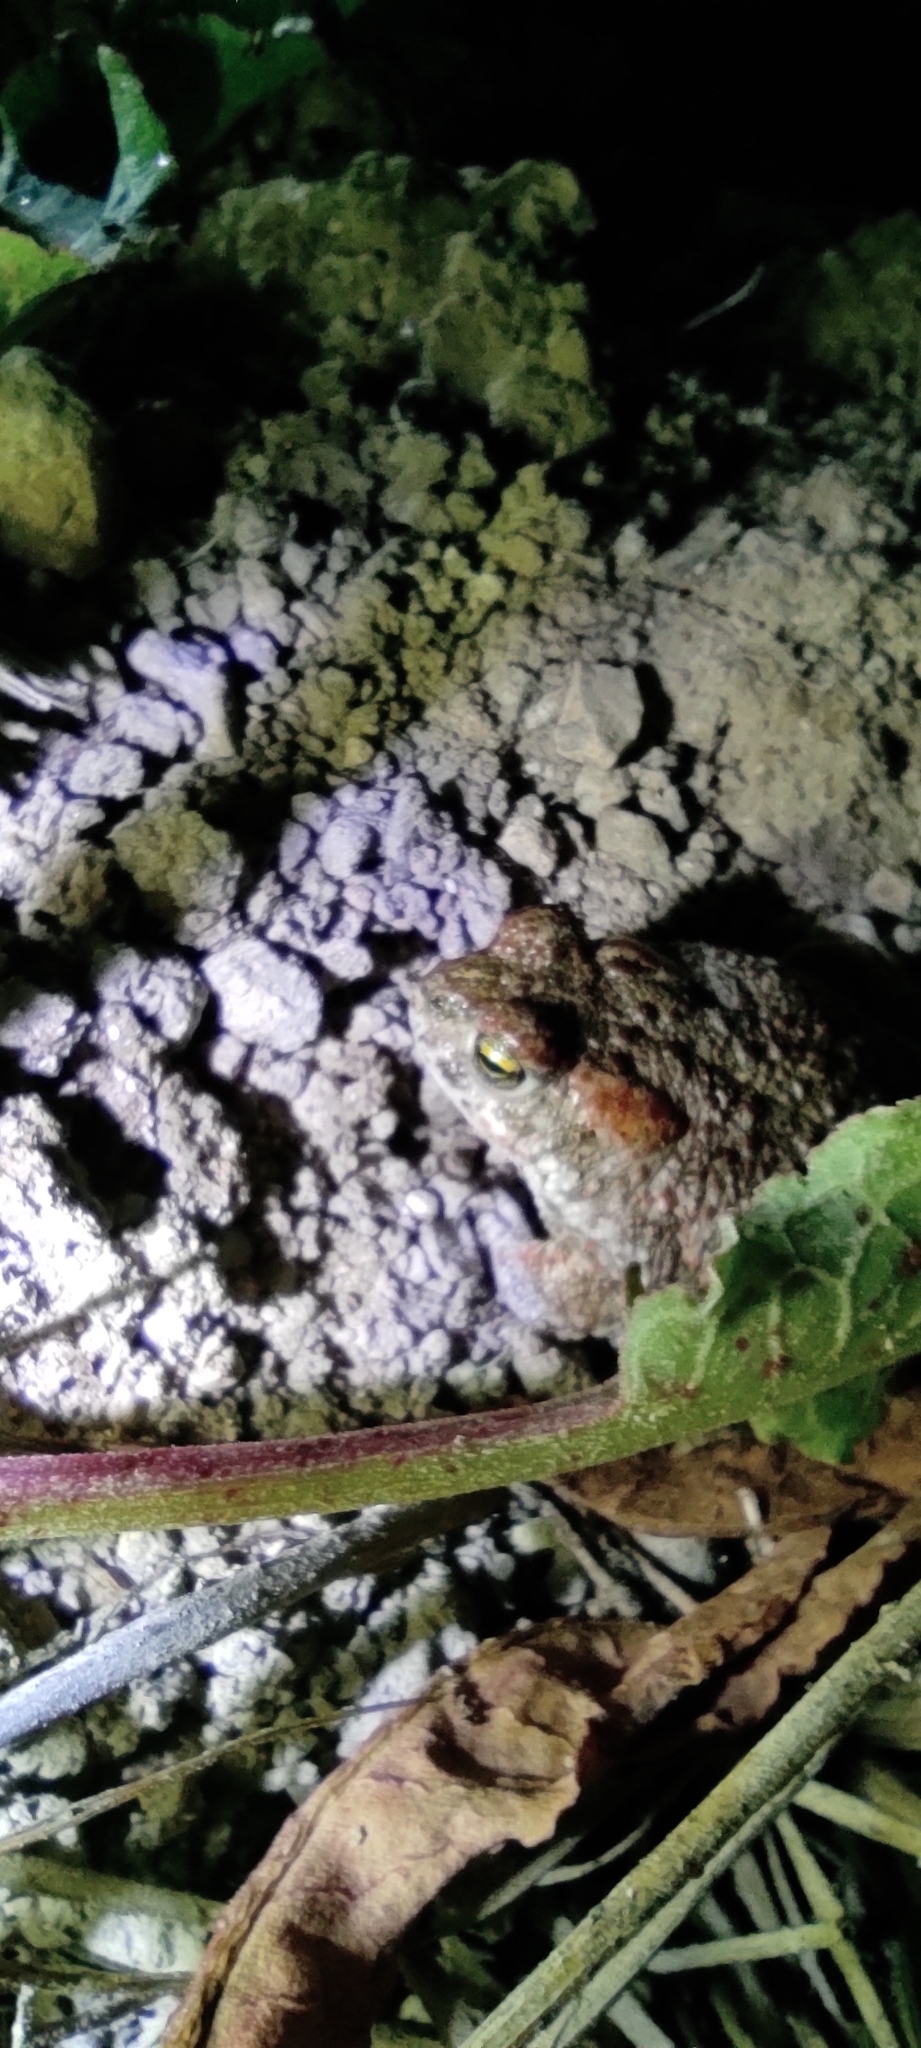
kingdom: Animalia
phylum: Chordata
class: Amphibia
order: Anura
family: Bufonidae
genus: Epidalea
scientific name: Epidalea calamita
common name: Natterjack toad
